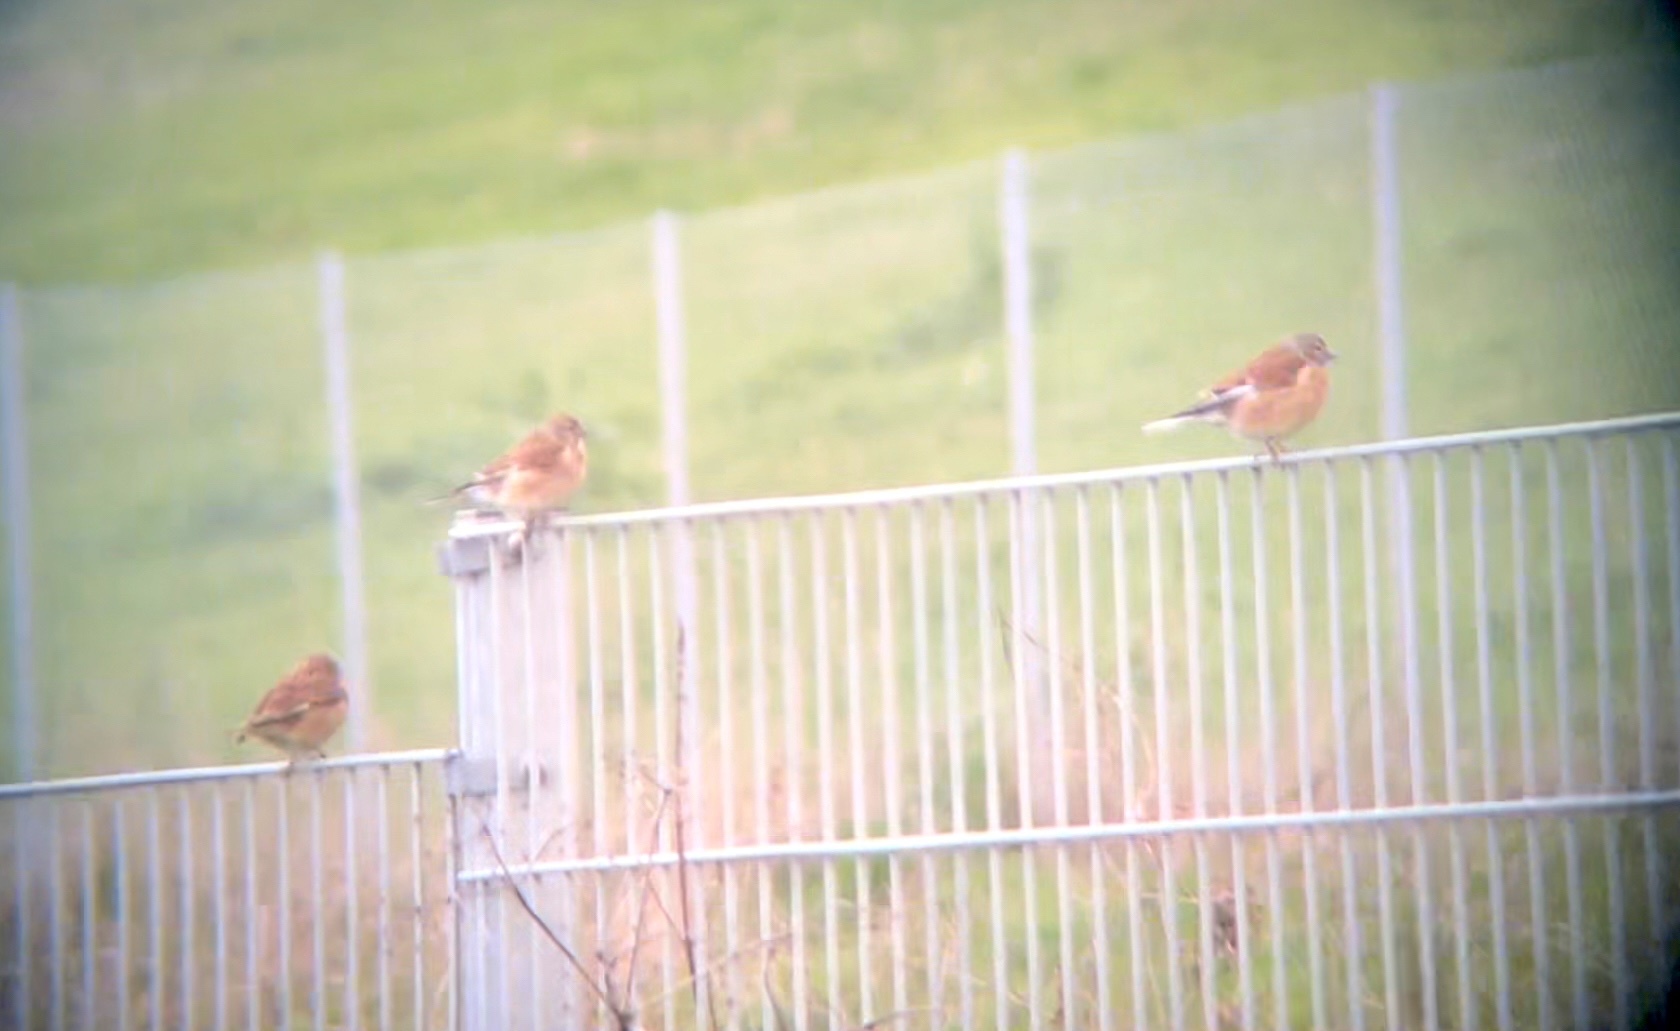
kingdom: Animalia
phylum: Chordata
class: Aves
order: Passeriformes
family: Fringillidae
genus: Linaria
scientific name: Linaria cannabina
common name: Common linnet
